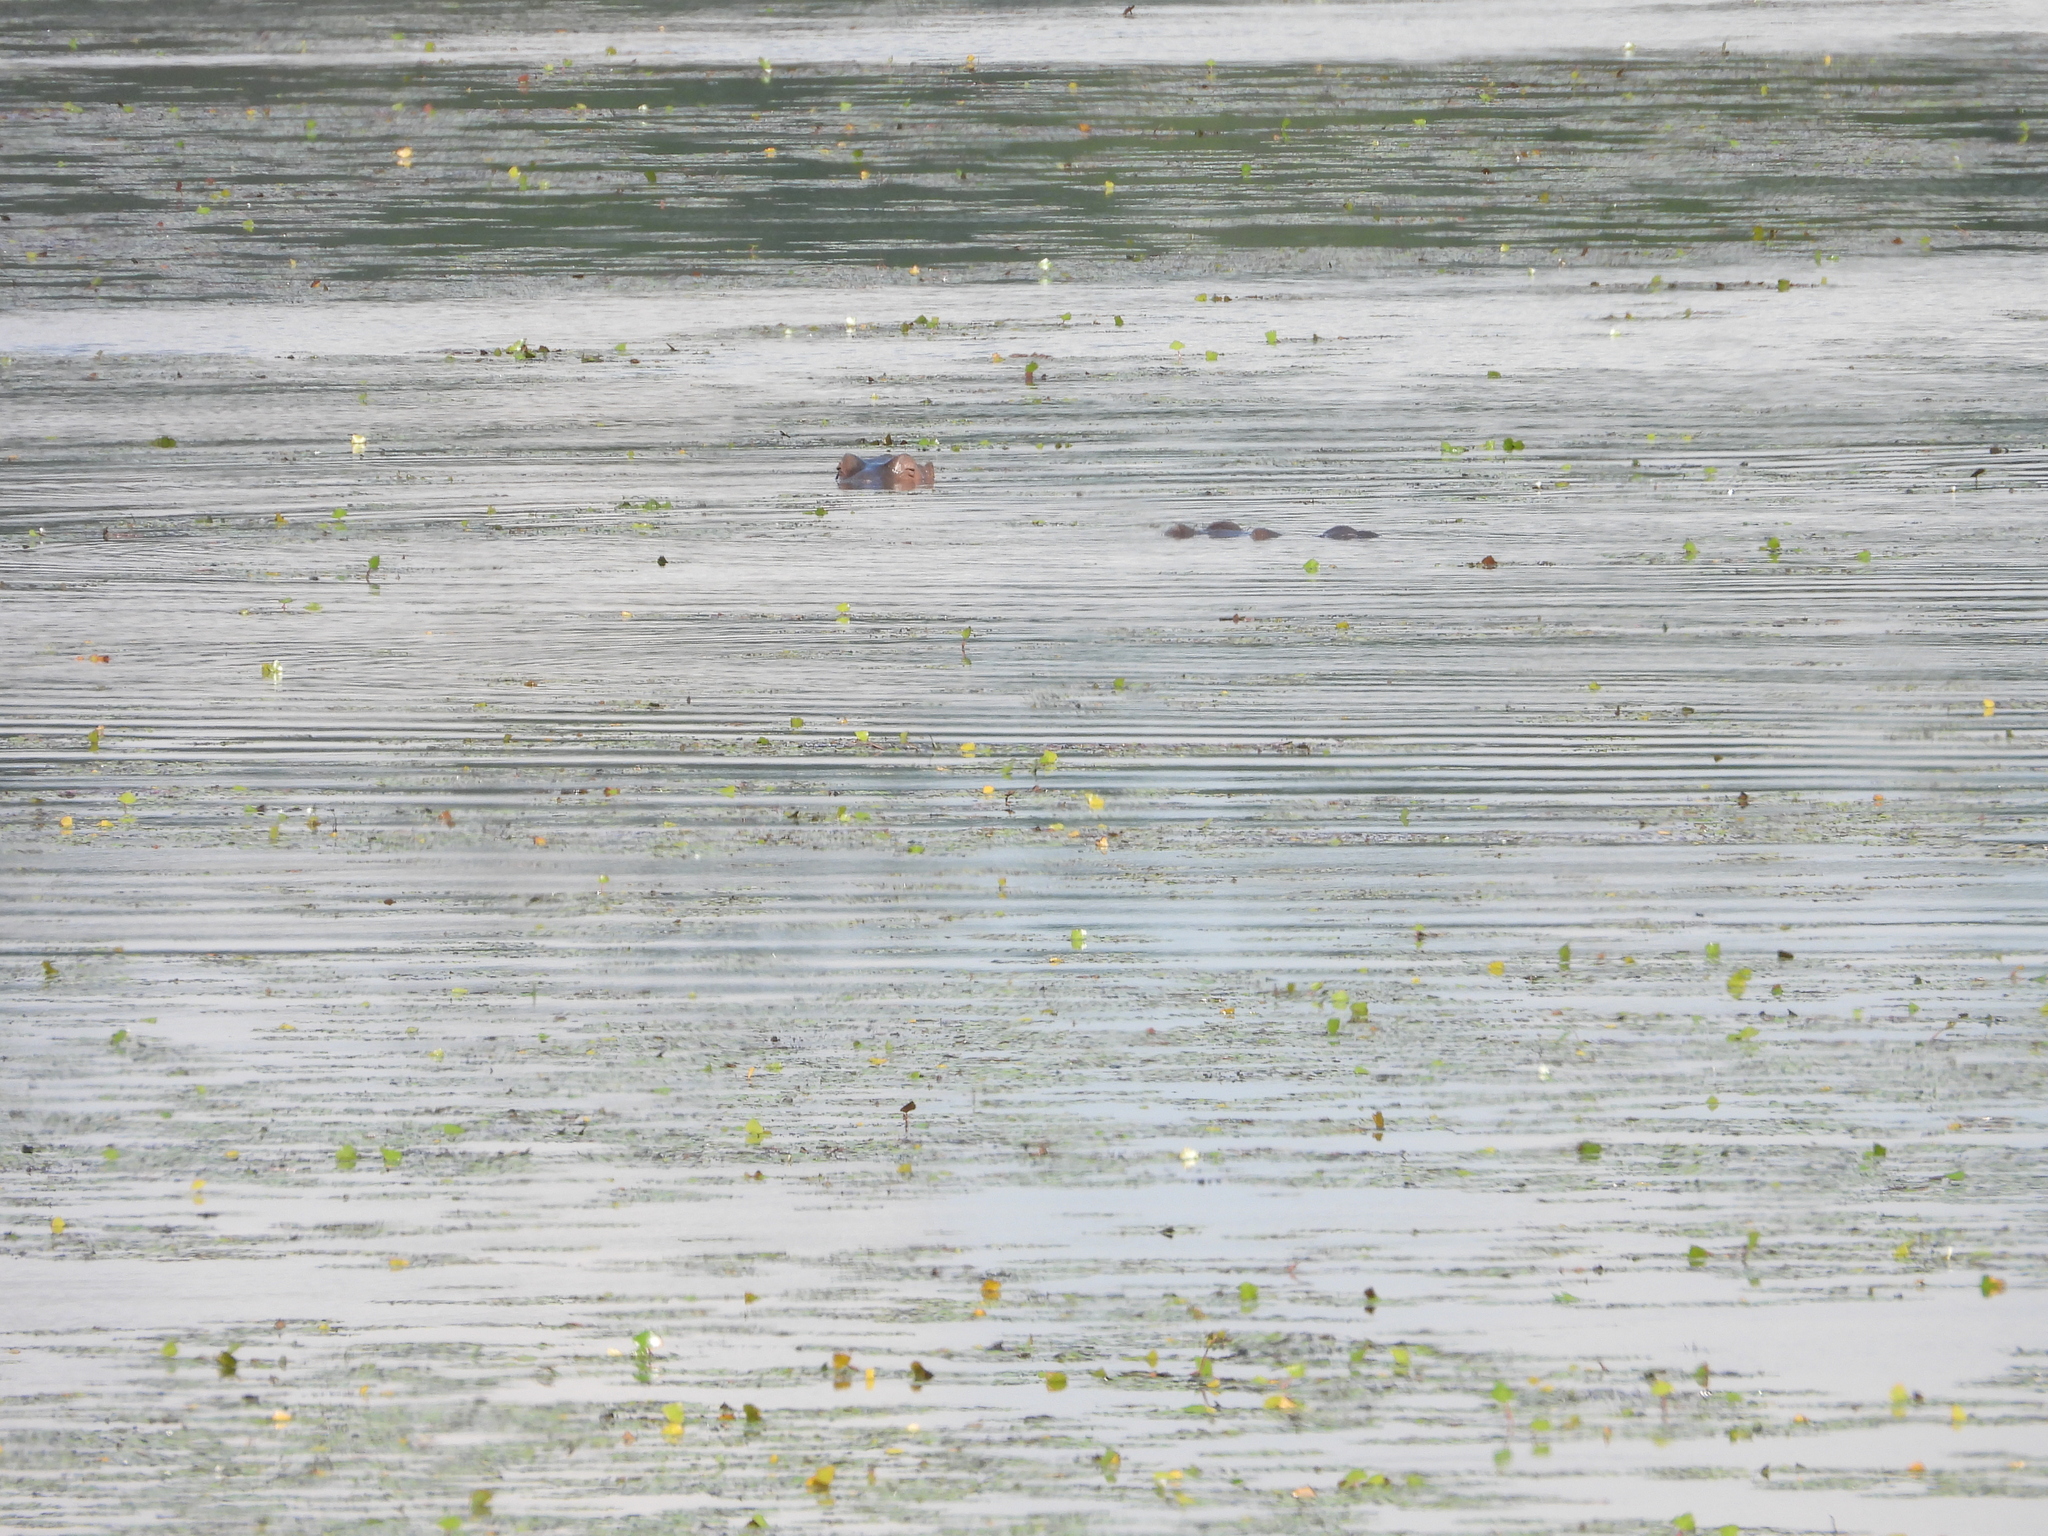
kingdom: Animalia
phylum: Chordata
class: Mammalia
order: Artiodactyla
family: Hippopotamidae
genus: Hippopotamus
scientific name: Hippopotamus amphibius
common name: Common hippopotamus
